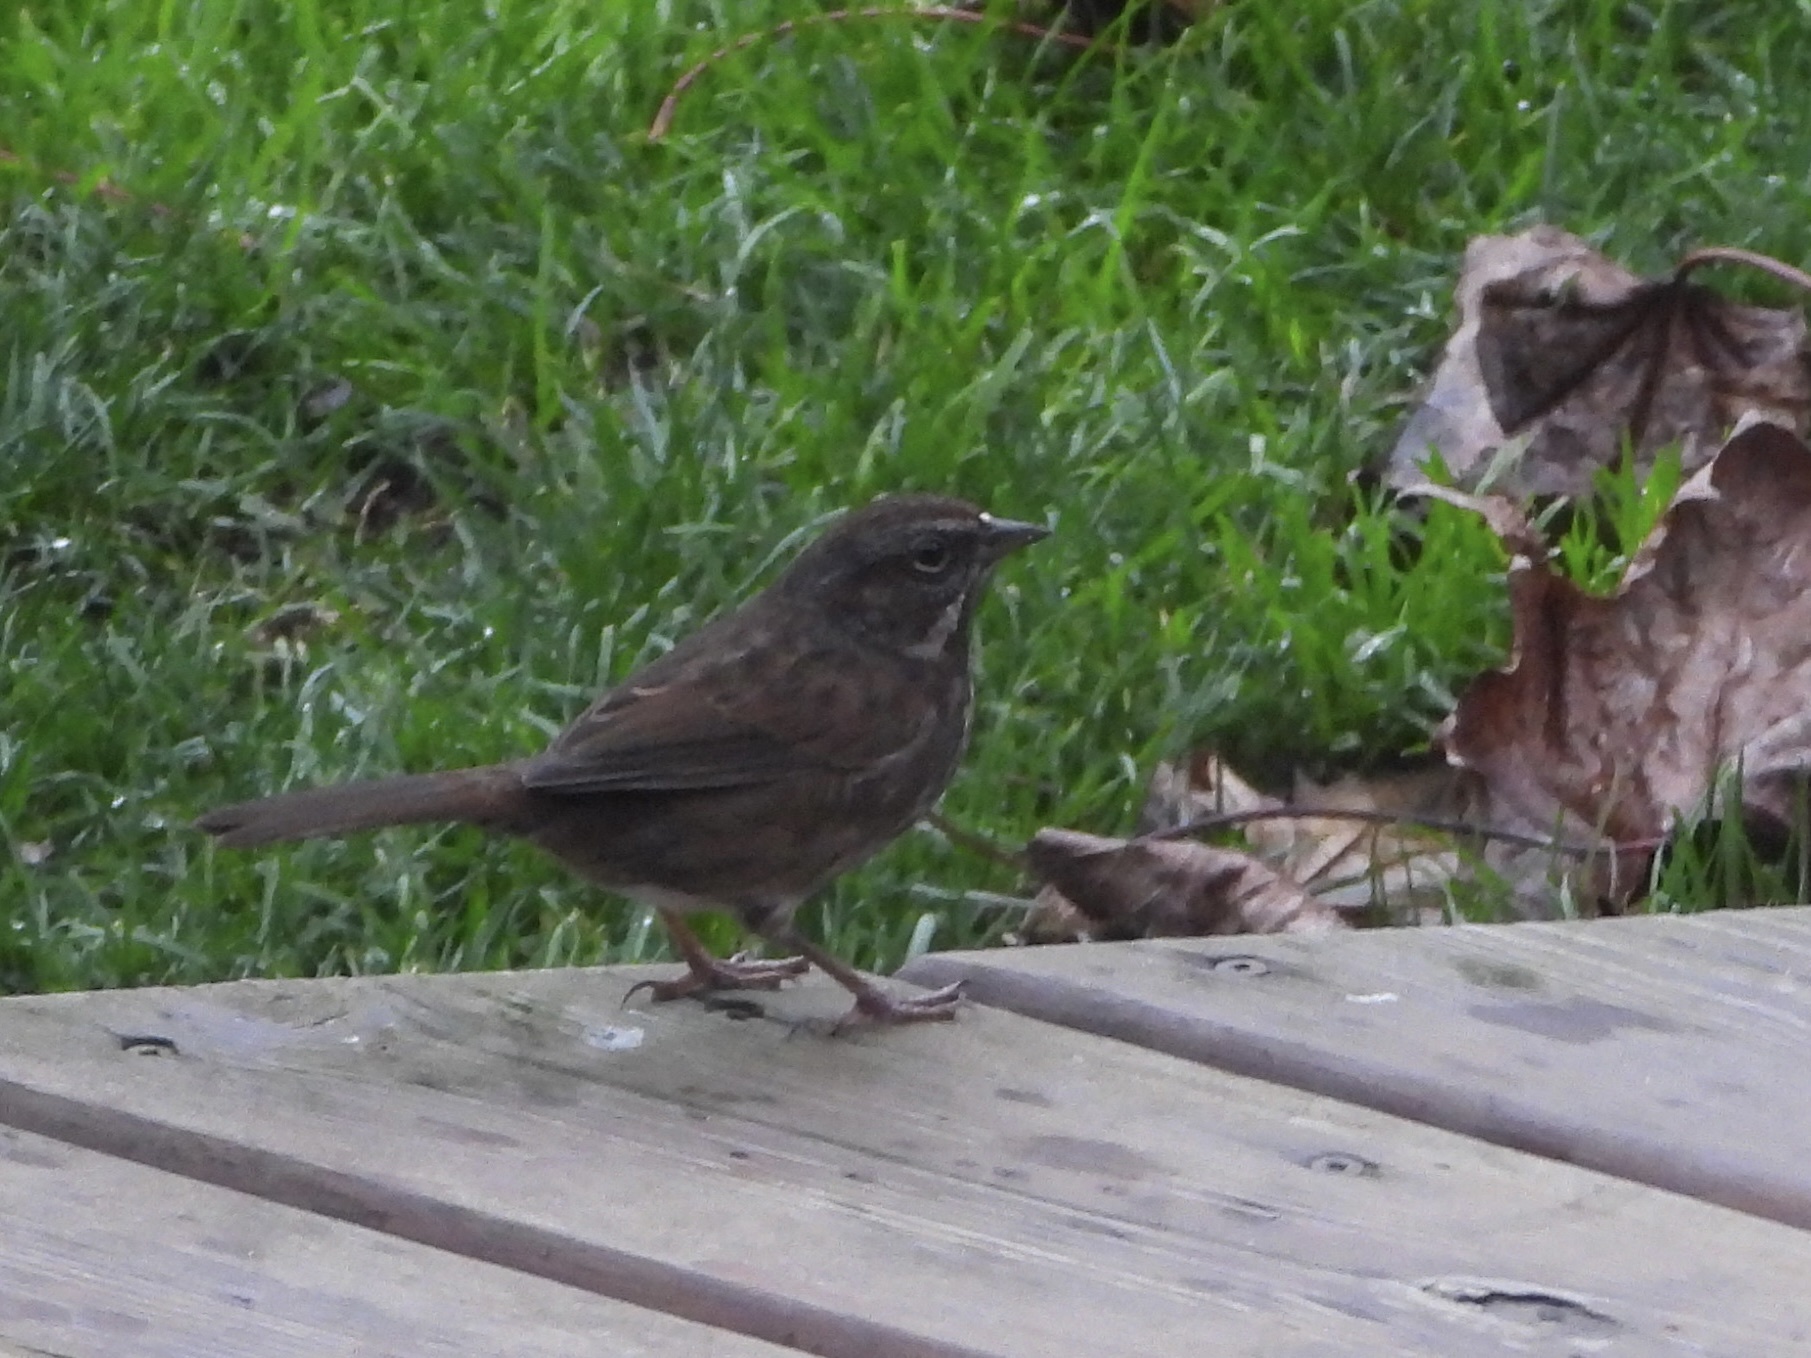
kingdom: Animalia
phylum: Chordata
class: Aves
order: Passeriformes
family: Passerellidae
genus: Melospiza
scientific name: Melospiza melodia
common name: Song sparrow
